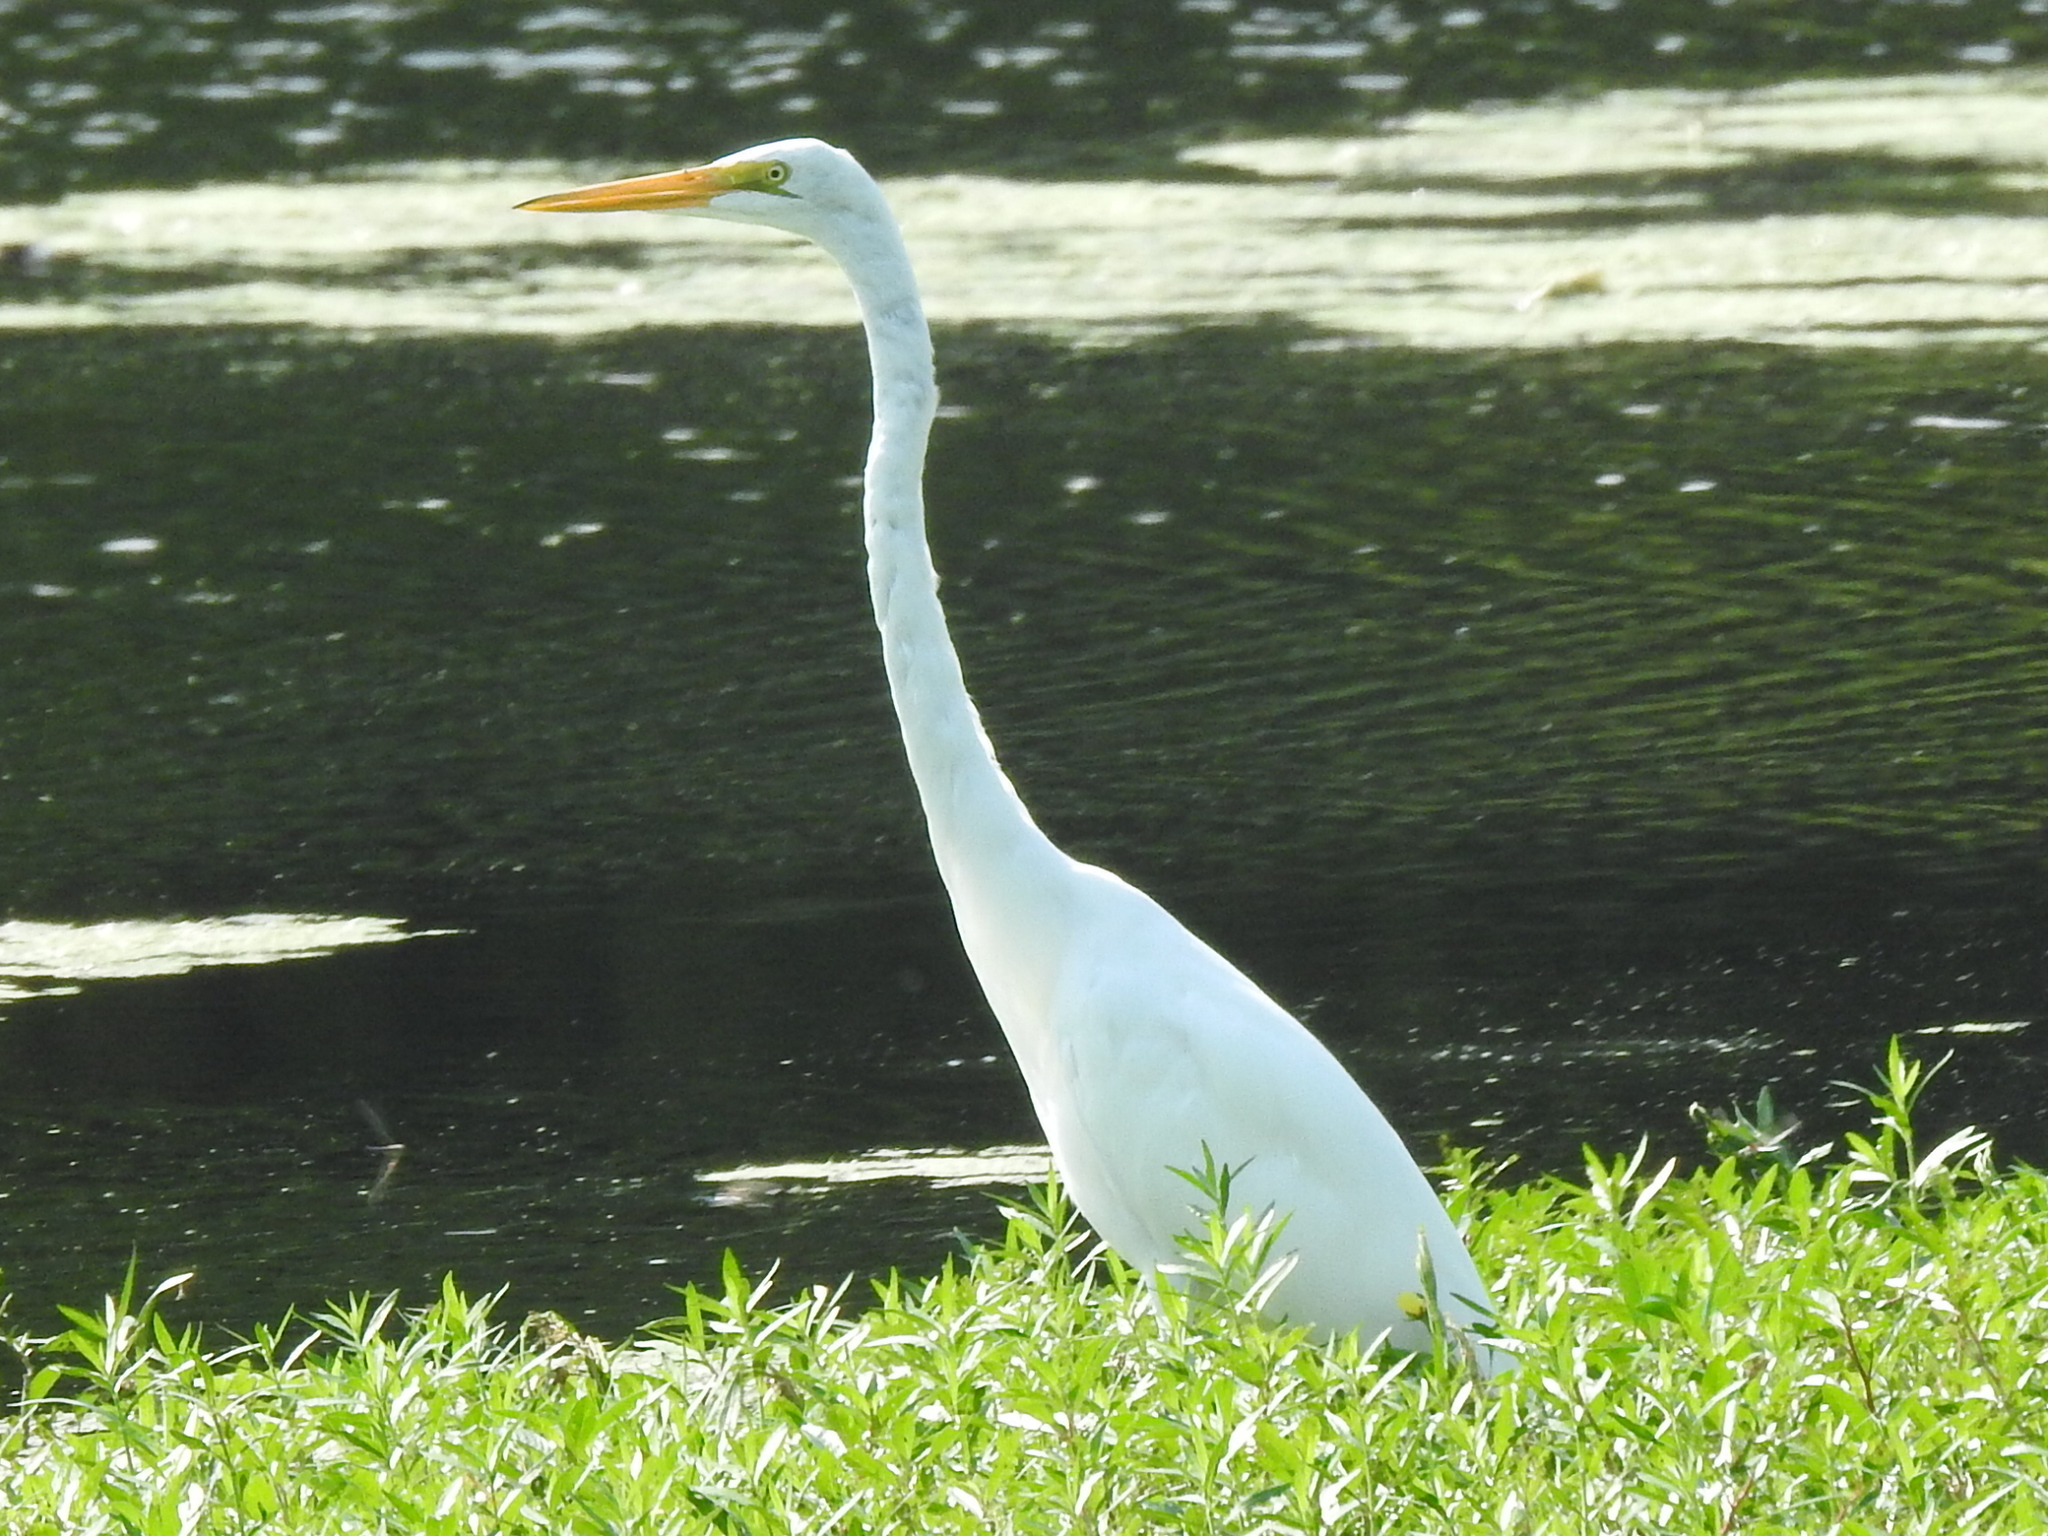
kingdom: Animalia
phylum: Chordata
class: Aves
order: Pelecaniformes
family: Ardeidae
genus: Ardea
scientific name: Ardea alba
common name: Great egret
